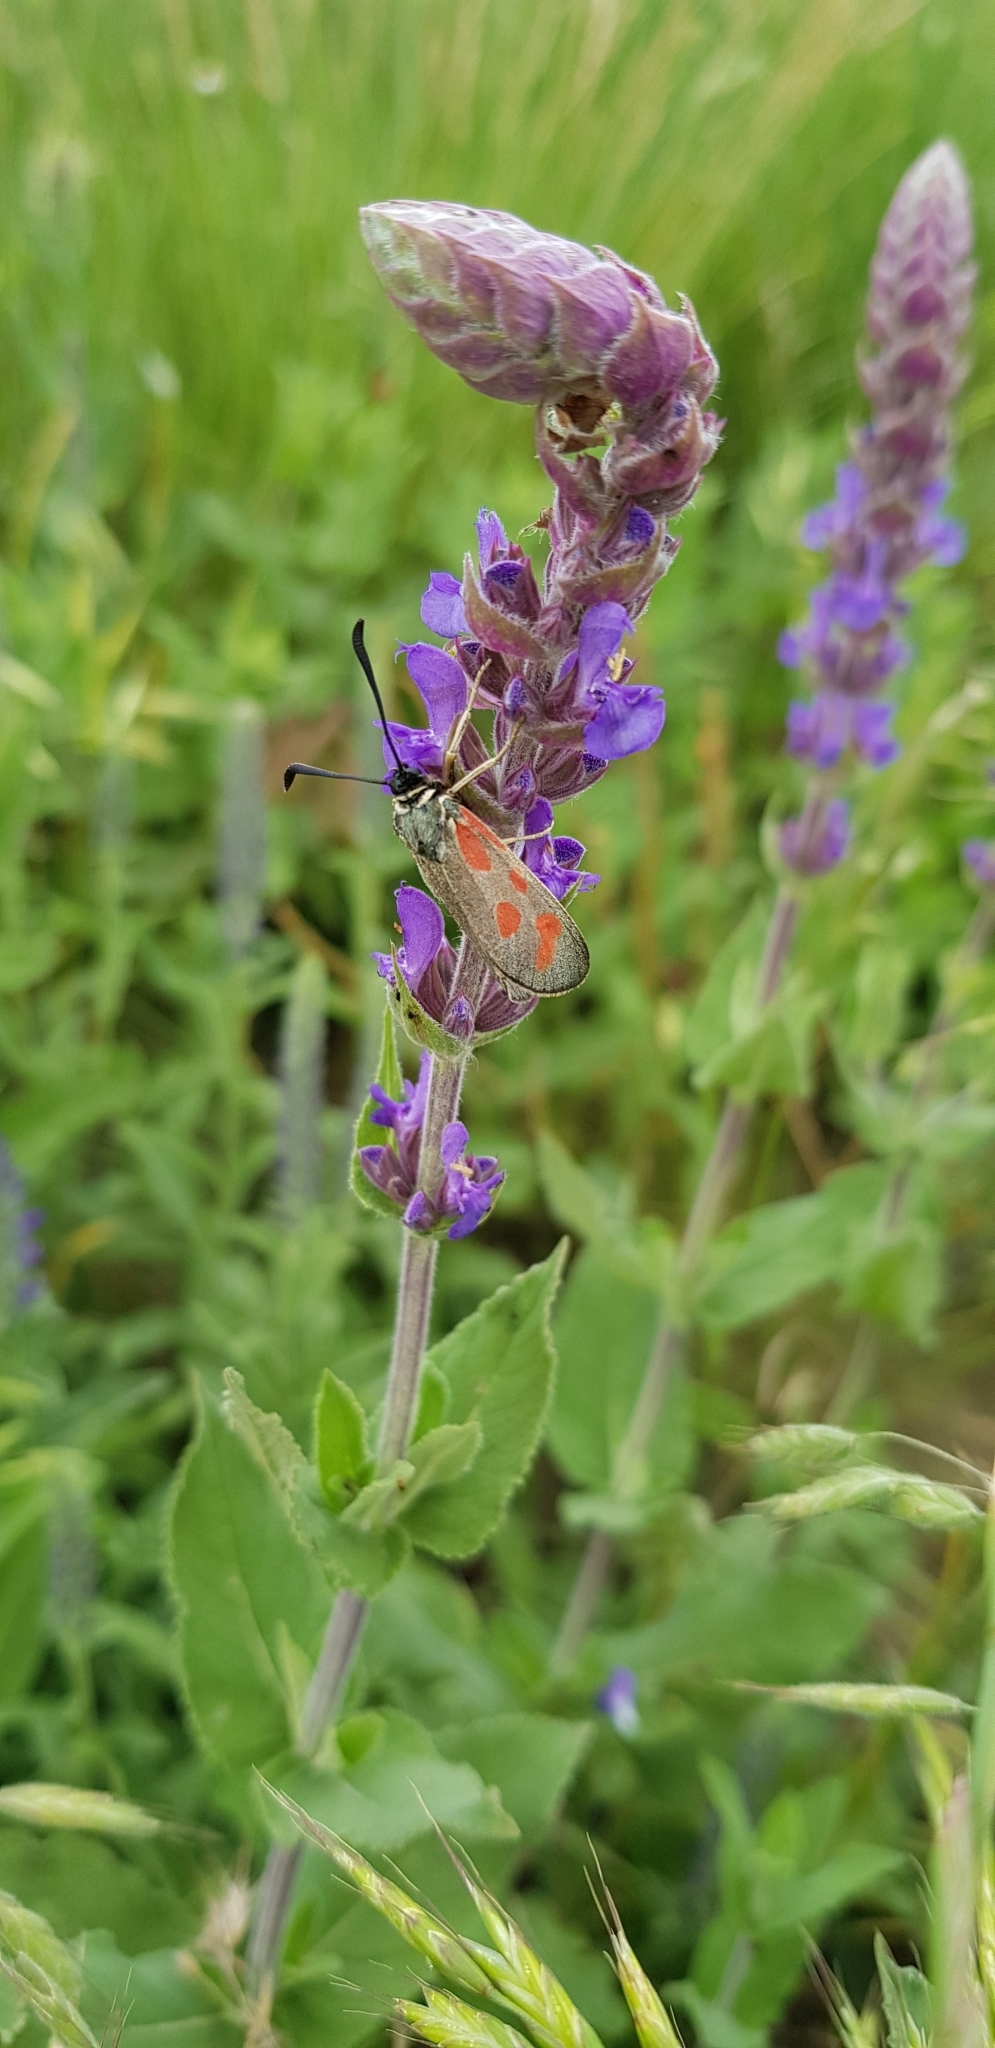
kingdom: Animalia
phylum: Arthropoda
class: Insecta
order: Lepidoptera
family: Zygaenidae
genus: Zygaena
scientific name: Zygaena loti
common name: Slender scotch burnet
